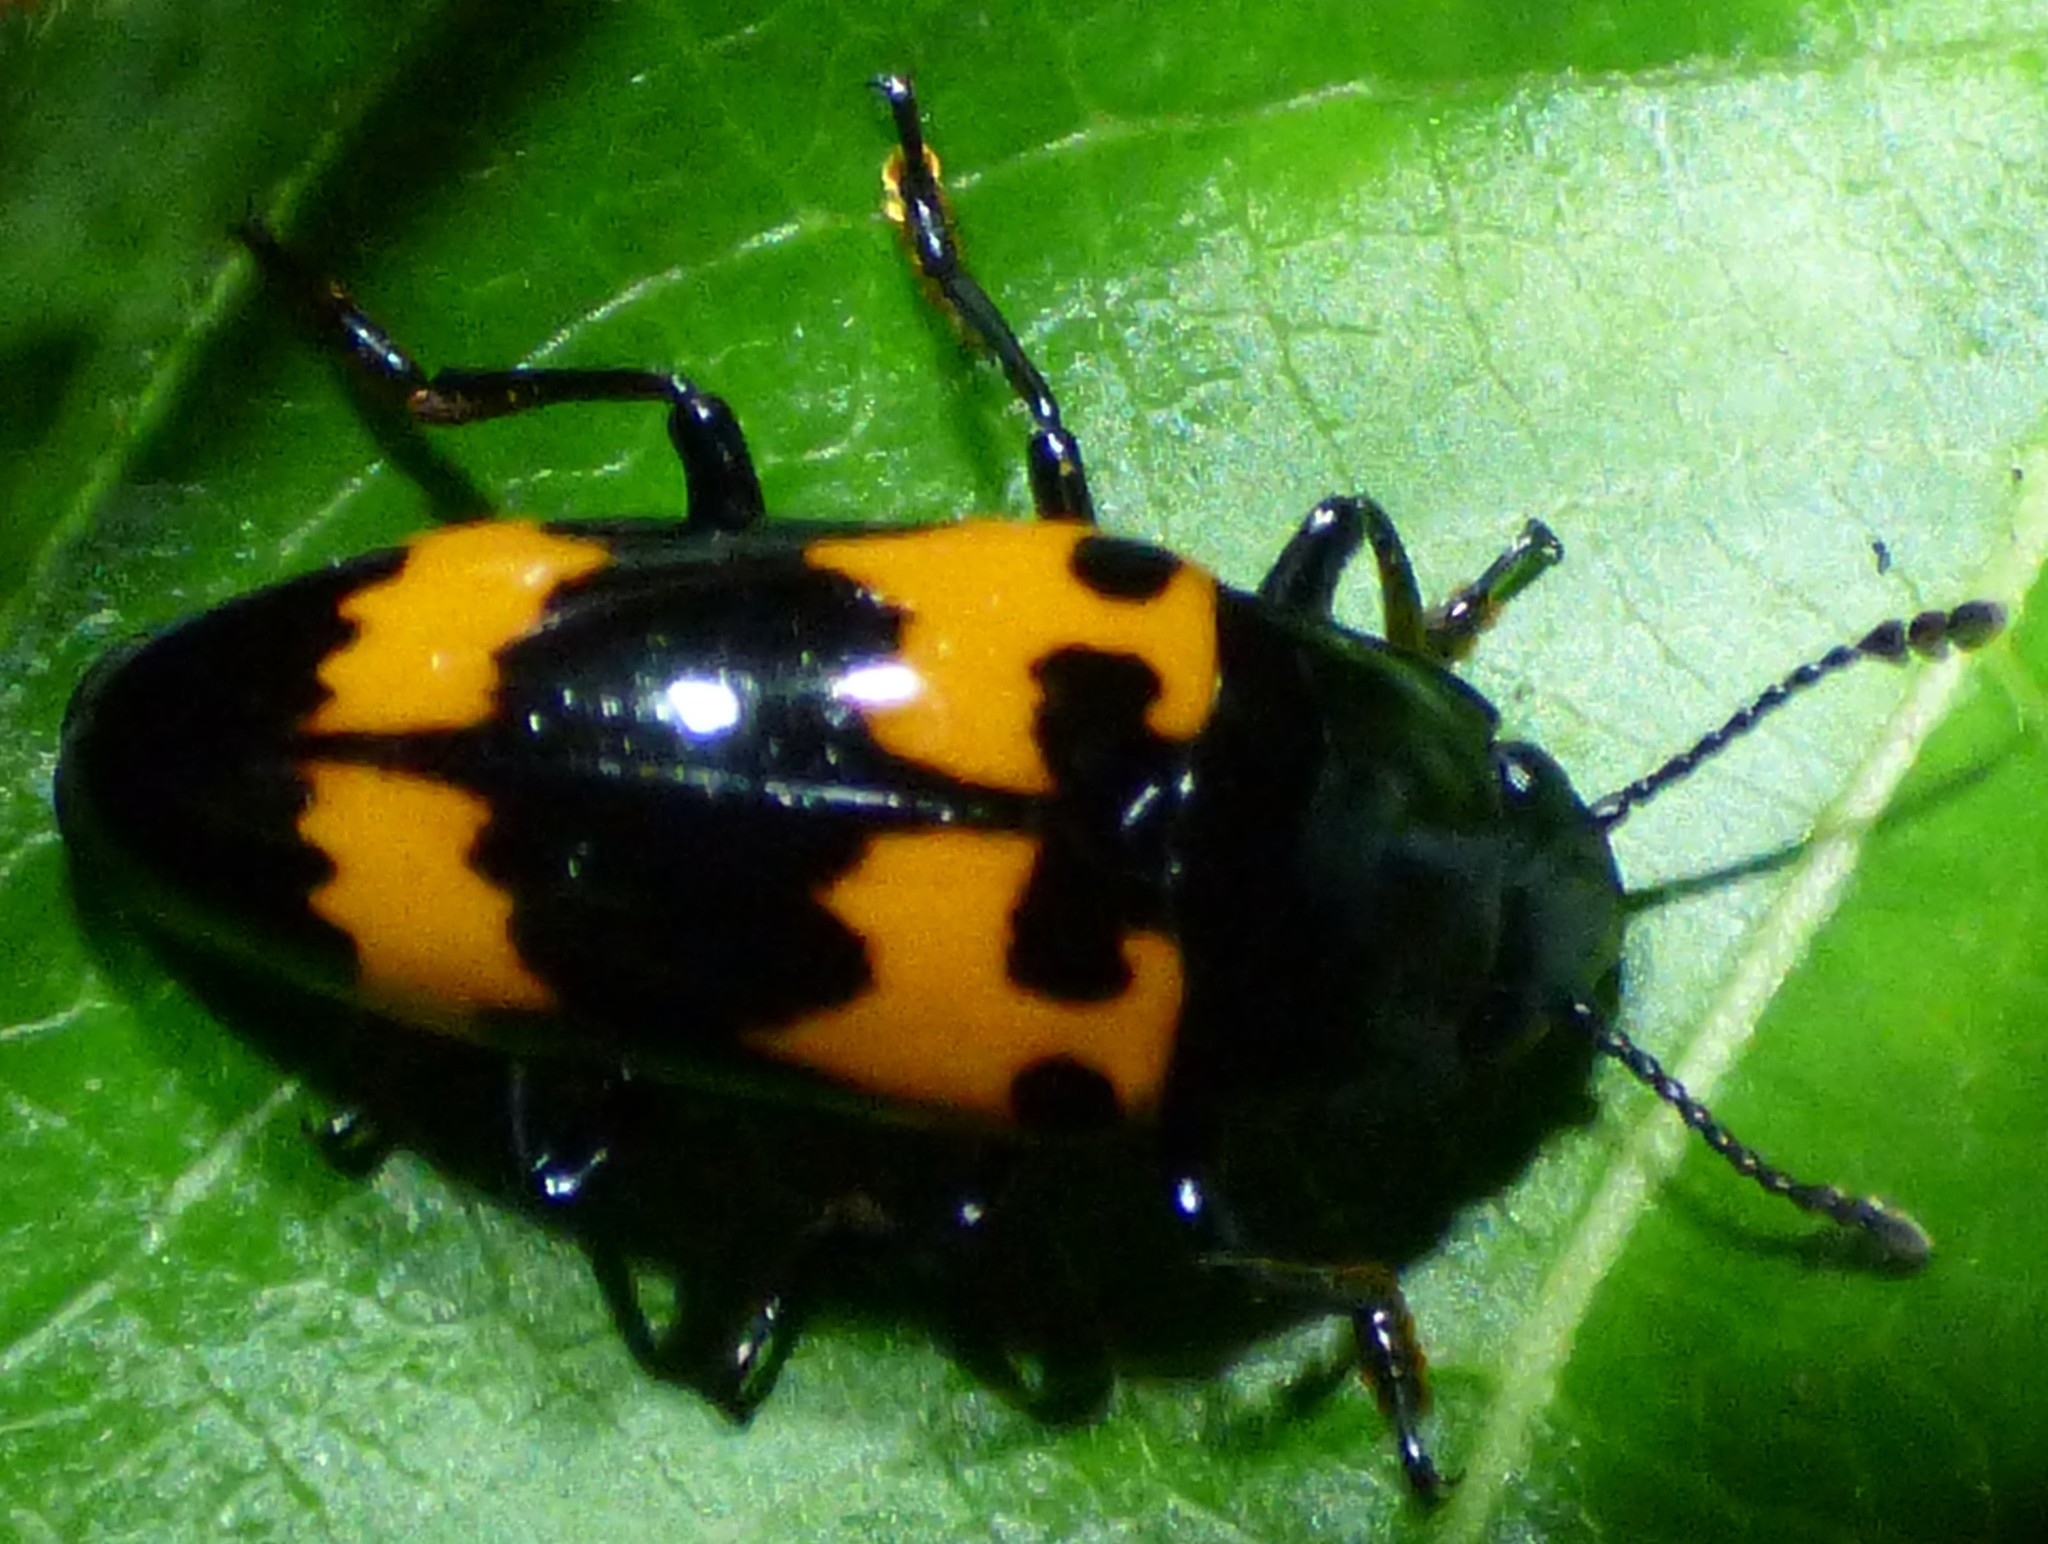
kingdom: Animalia
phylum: Arthropoda
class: Insecta
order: Coleoptera
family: Erotylidae
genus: Megalodacne
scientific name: Megalodacne heros
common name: Pleasing fungus beetle
